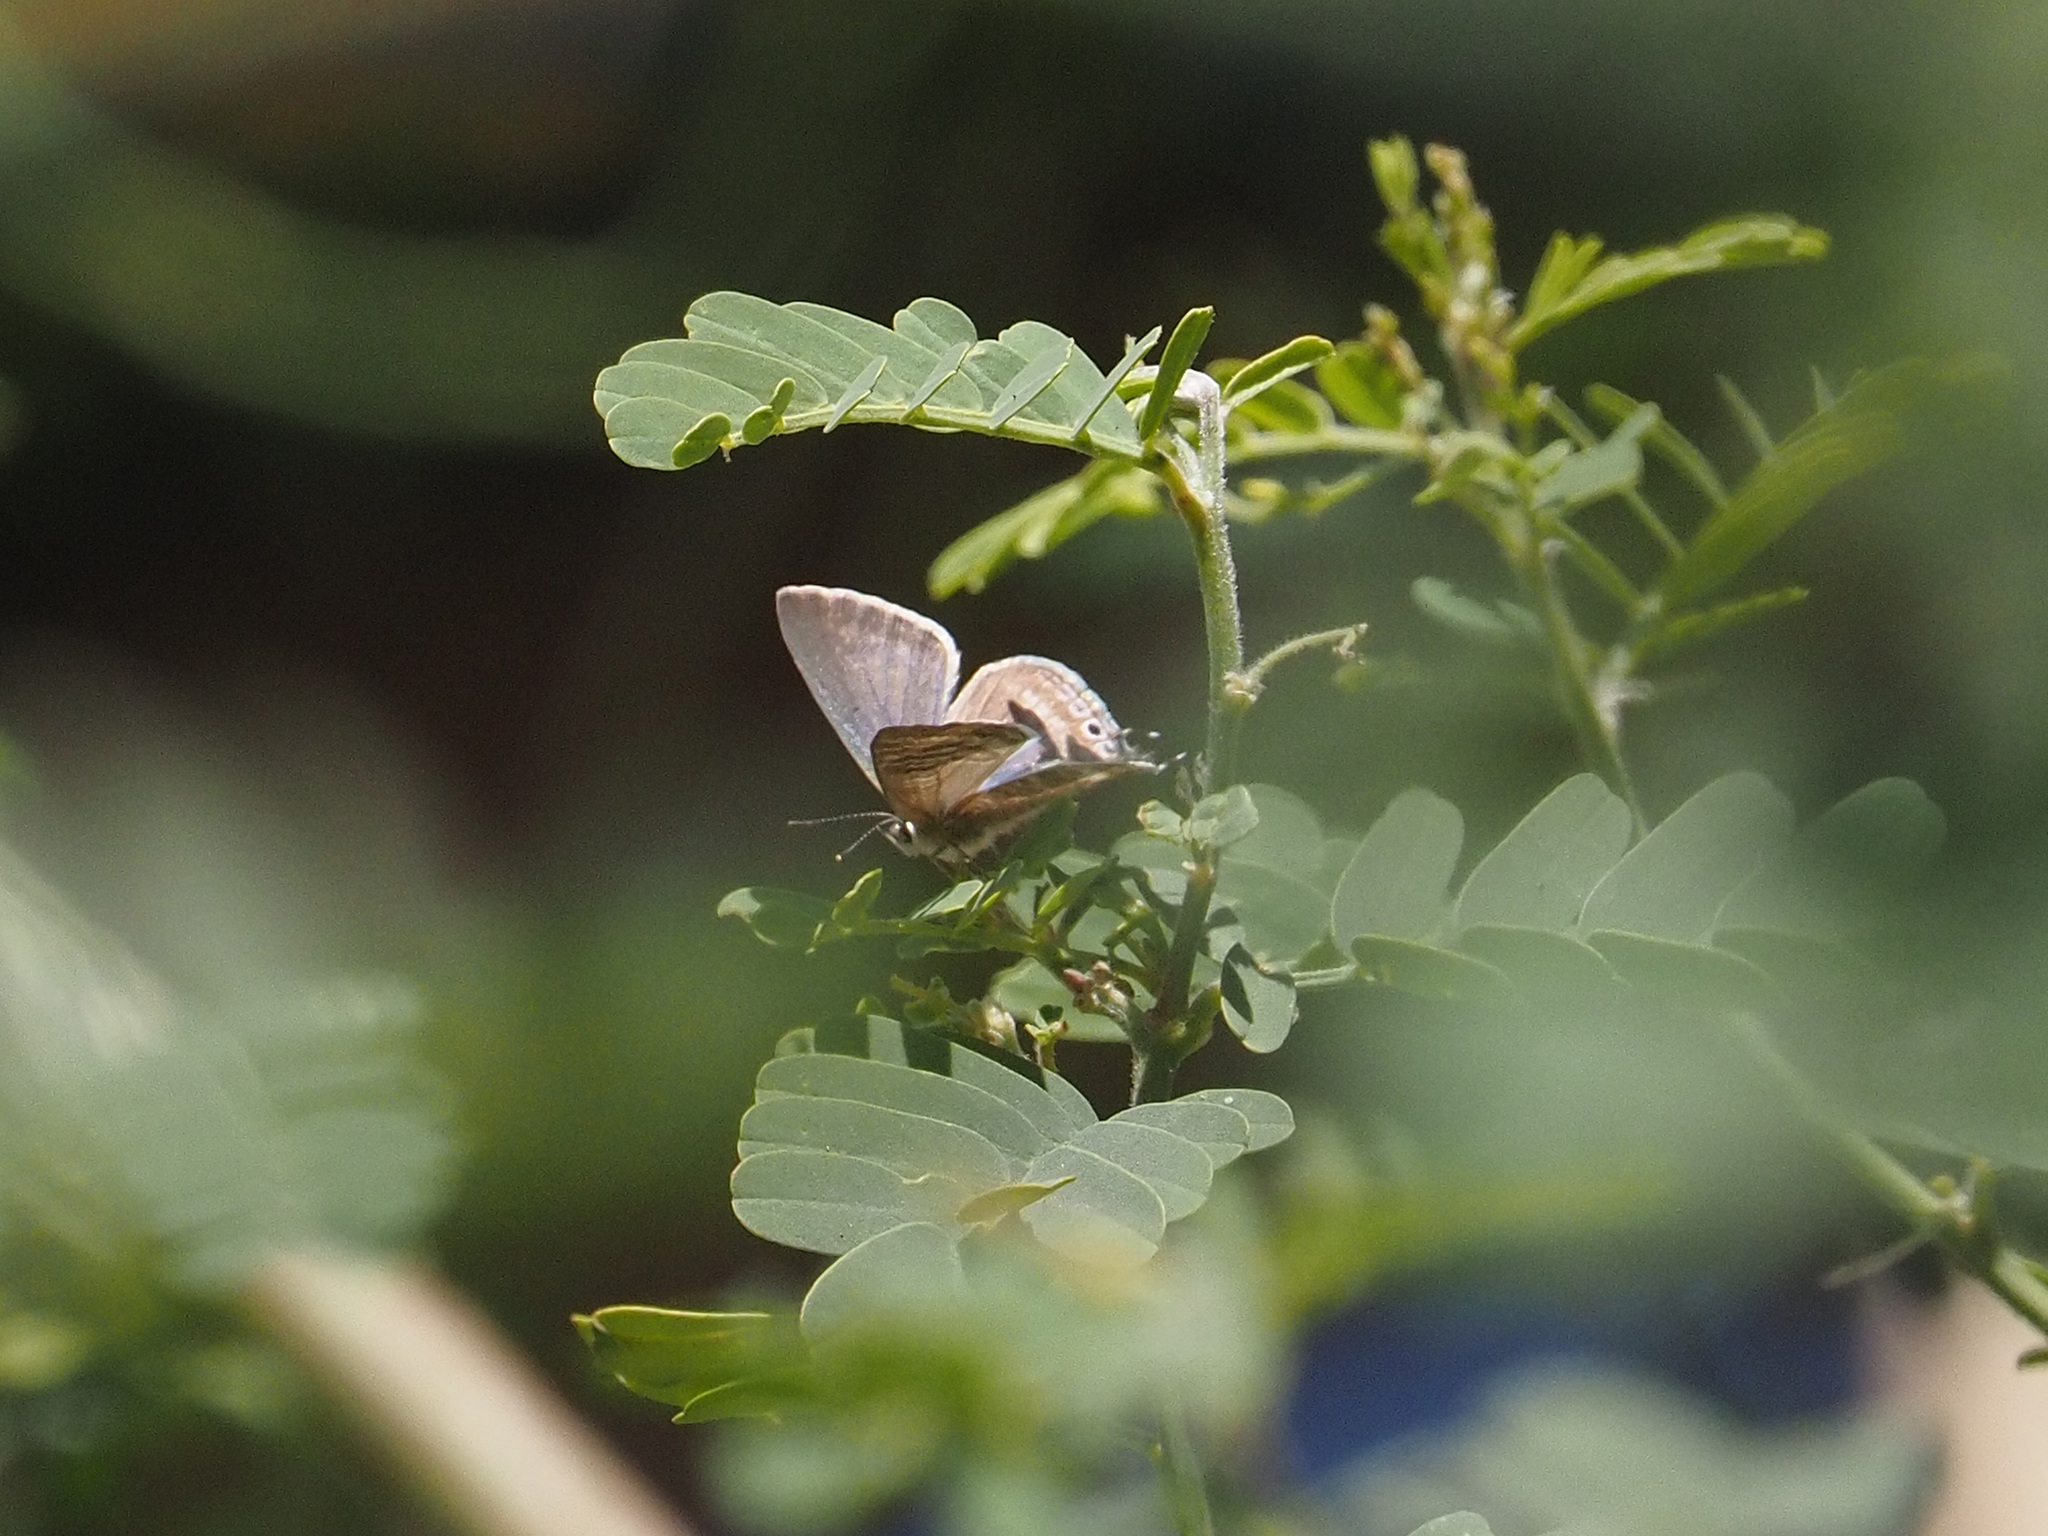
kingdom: Animalia
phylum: Arthropoda
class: Insecta
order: Lepidoptera
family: Lycaenidae
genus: Lampides
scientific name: Lampides boeticus
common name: Long-tailed blue
